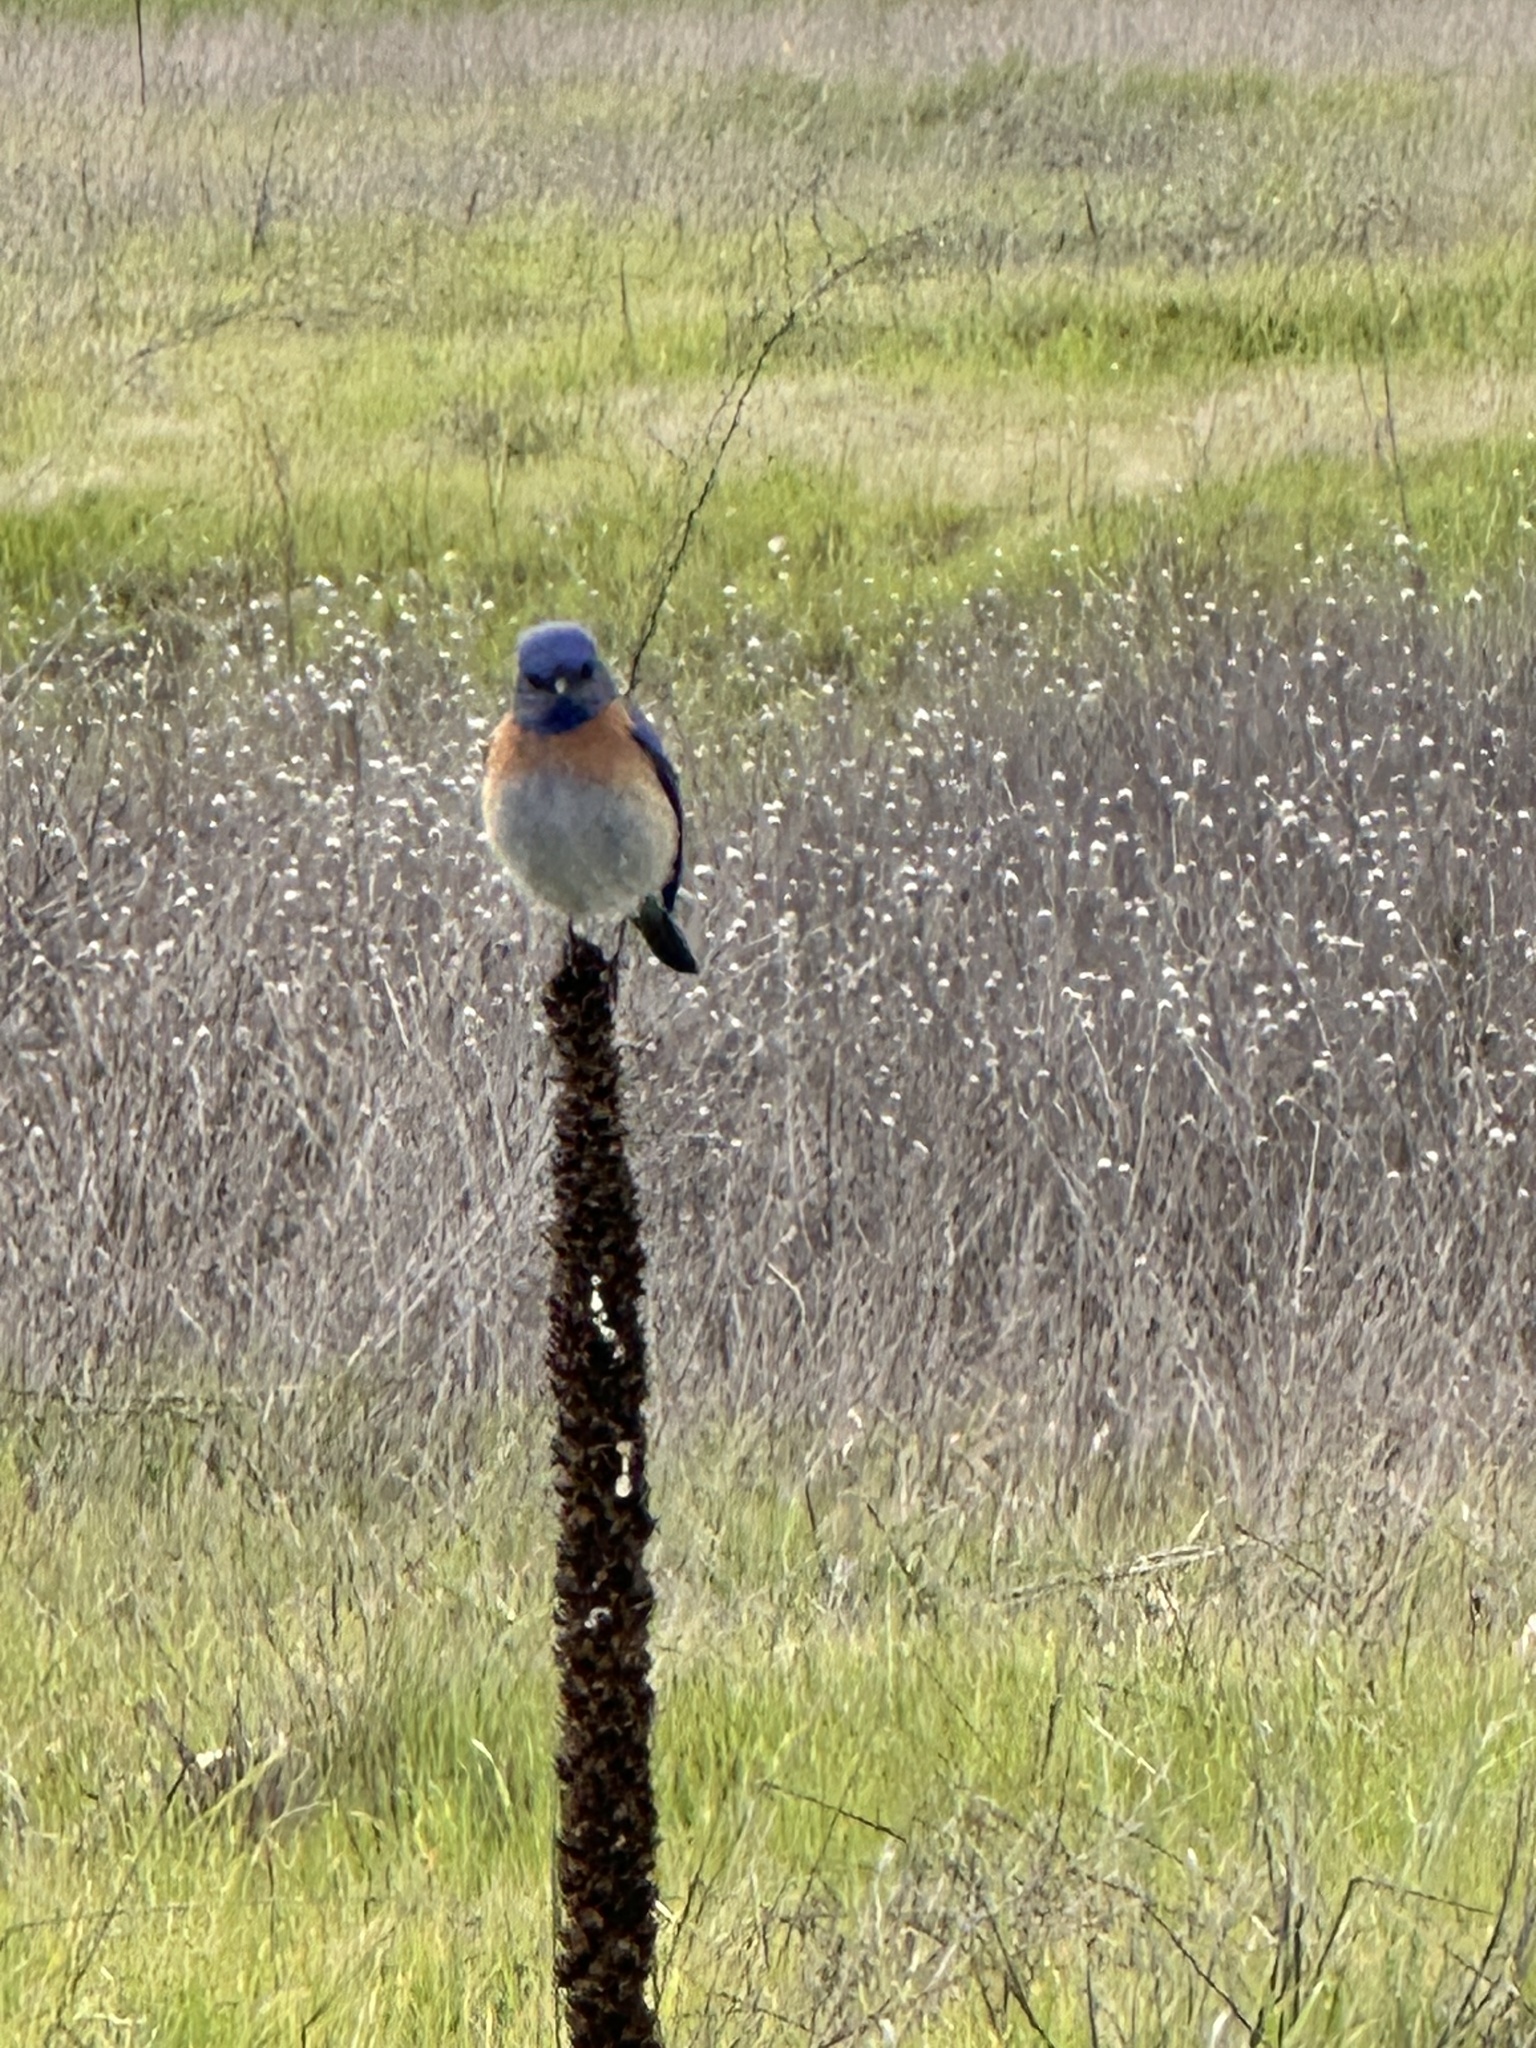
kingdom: Animalia
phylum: Chordata
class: Aves
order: Passeriformes
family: Turdidae
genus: Sialia
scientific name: Sialia mexicana
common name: Western bluebird
